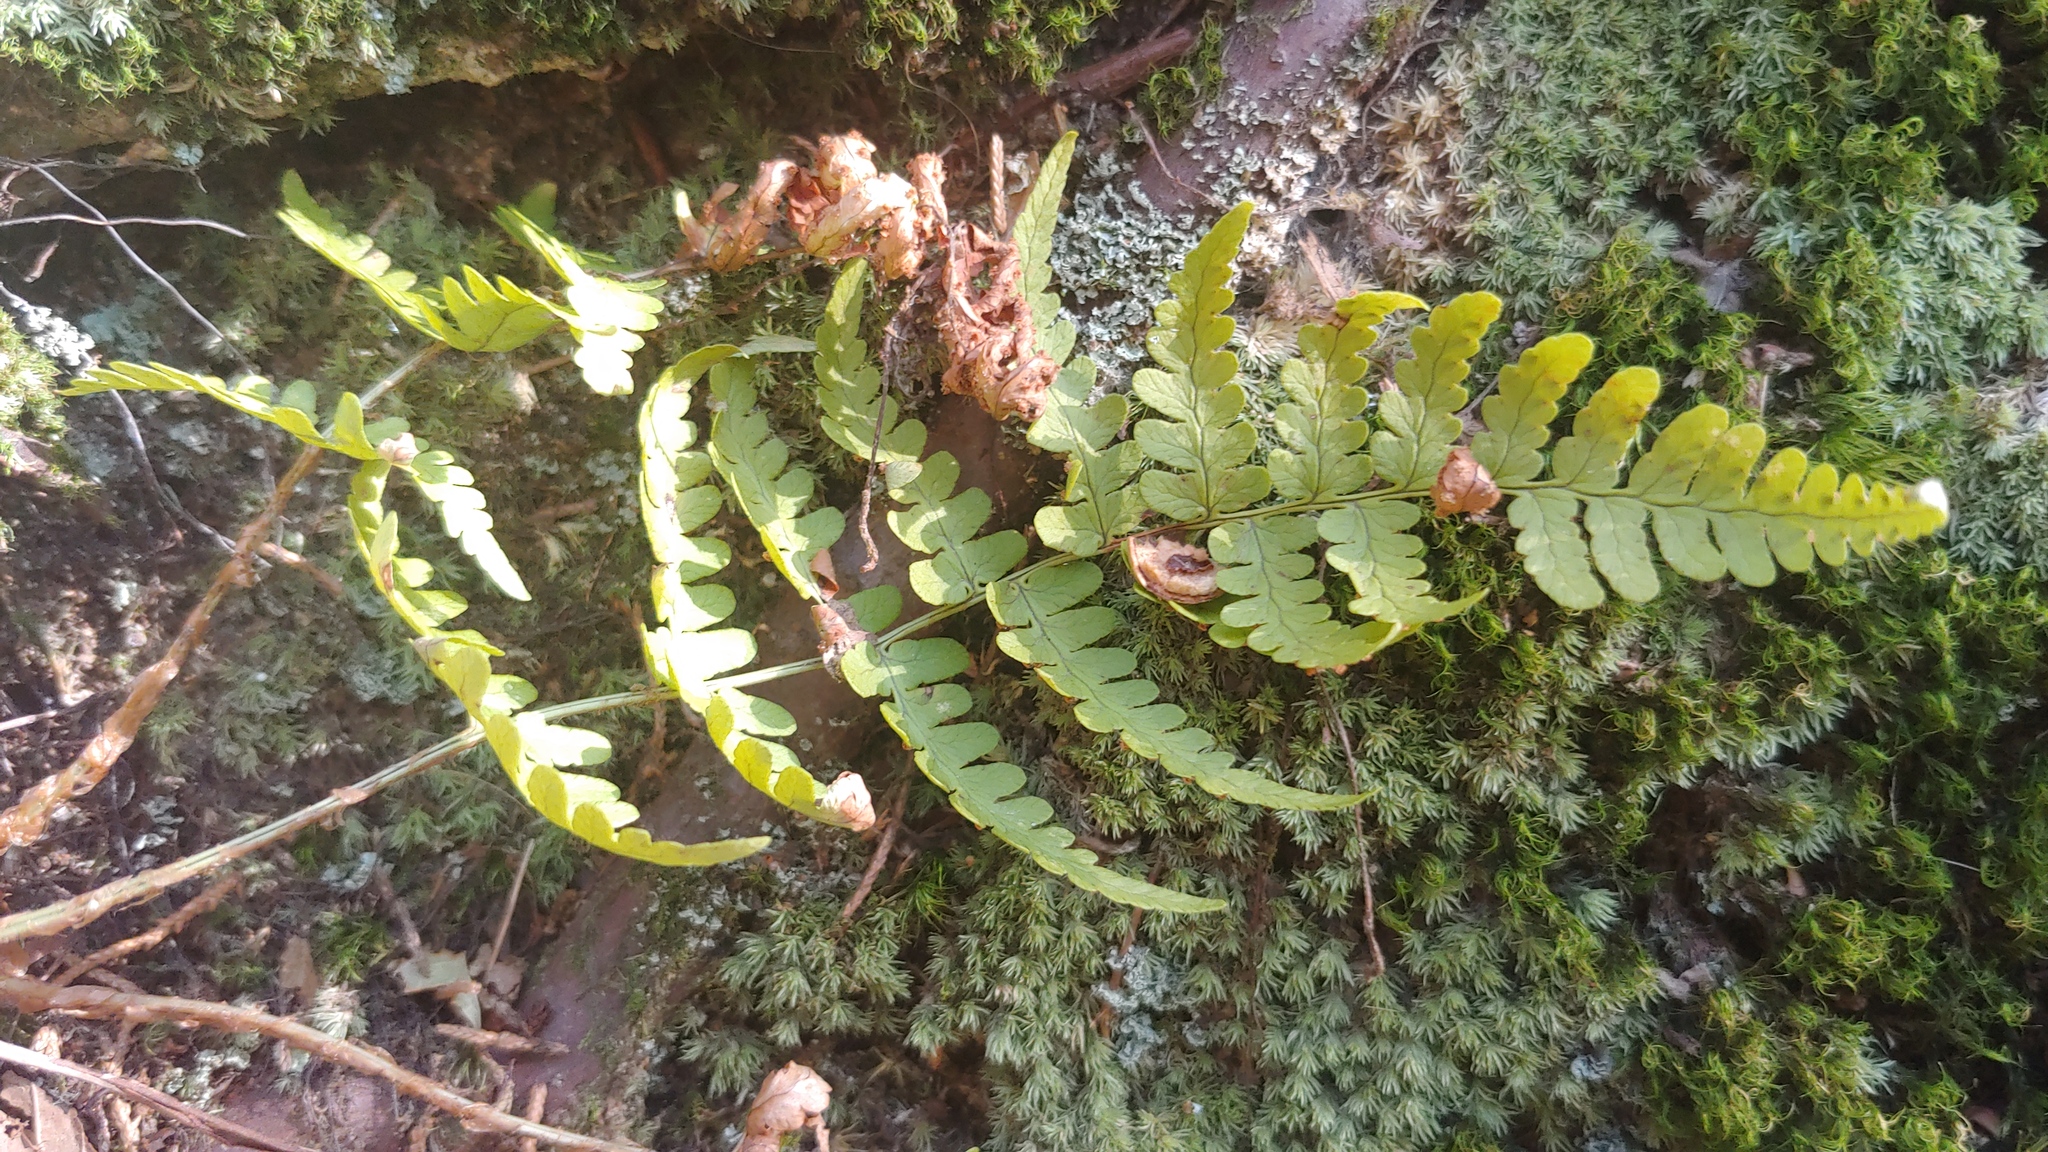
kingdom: Plantae
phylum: Tracheophyta
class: Polypodiopsida
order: Polypodiales
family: Dryopteridaceae
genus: Dryopteris
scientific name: Dryopteris marginalis
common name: Marginal wood fern
